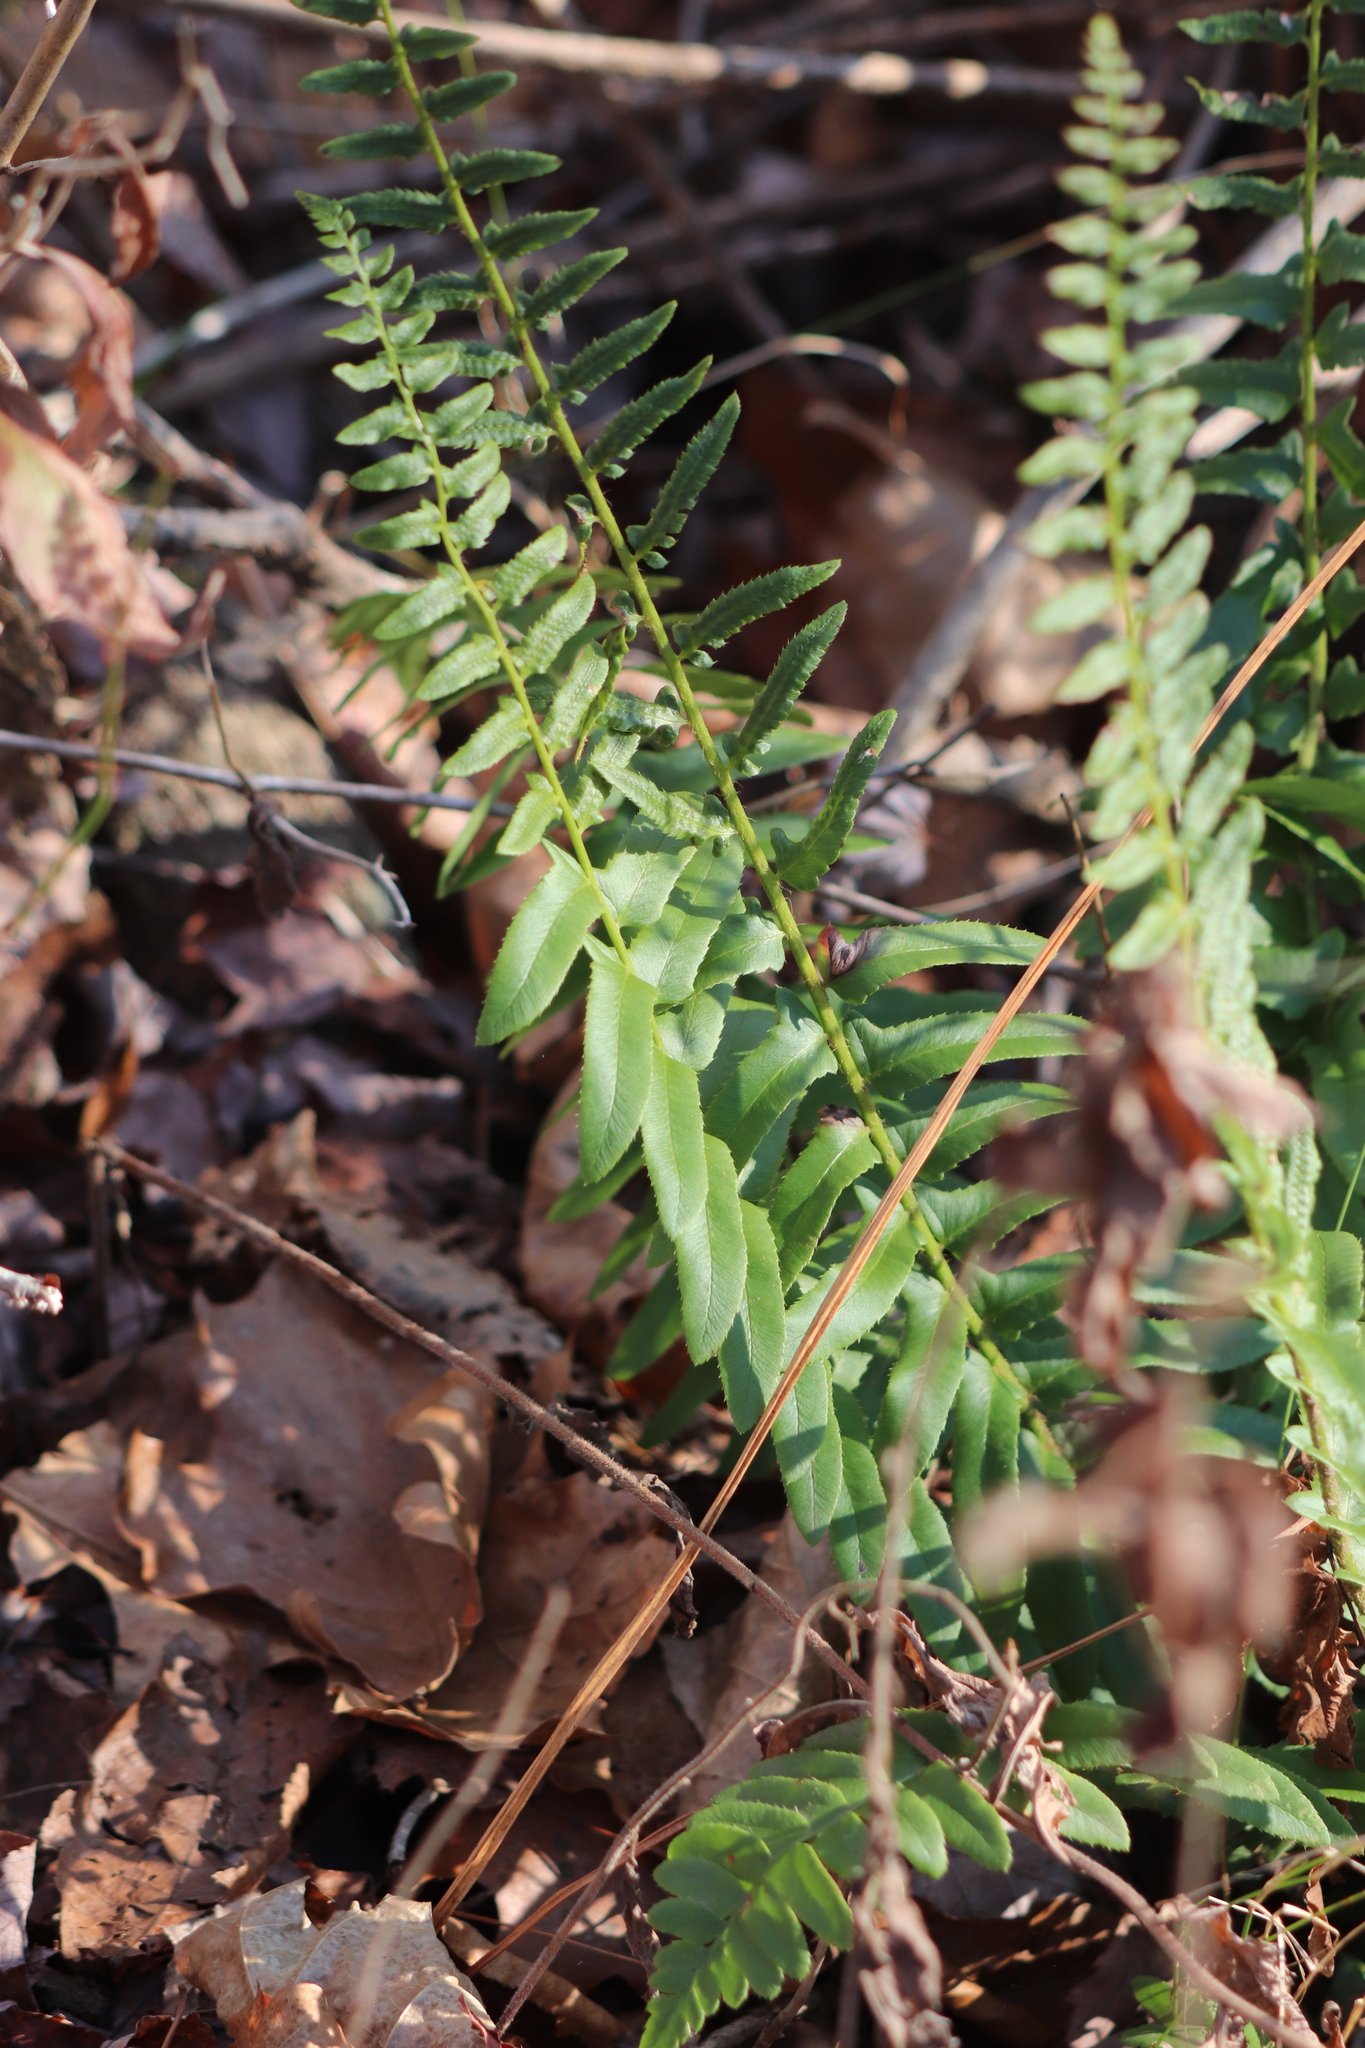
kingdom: Plantae
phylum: Tracheophyta
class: Polypodiopsida
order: Polypodiales
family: Dryopteridaceae
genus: Polystichum
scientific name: Polystichum acrostichoides
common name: Christmas fern
